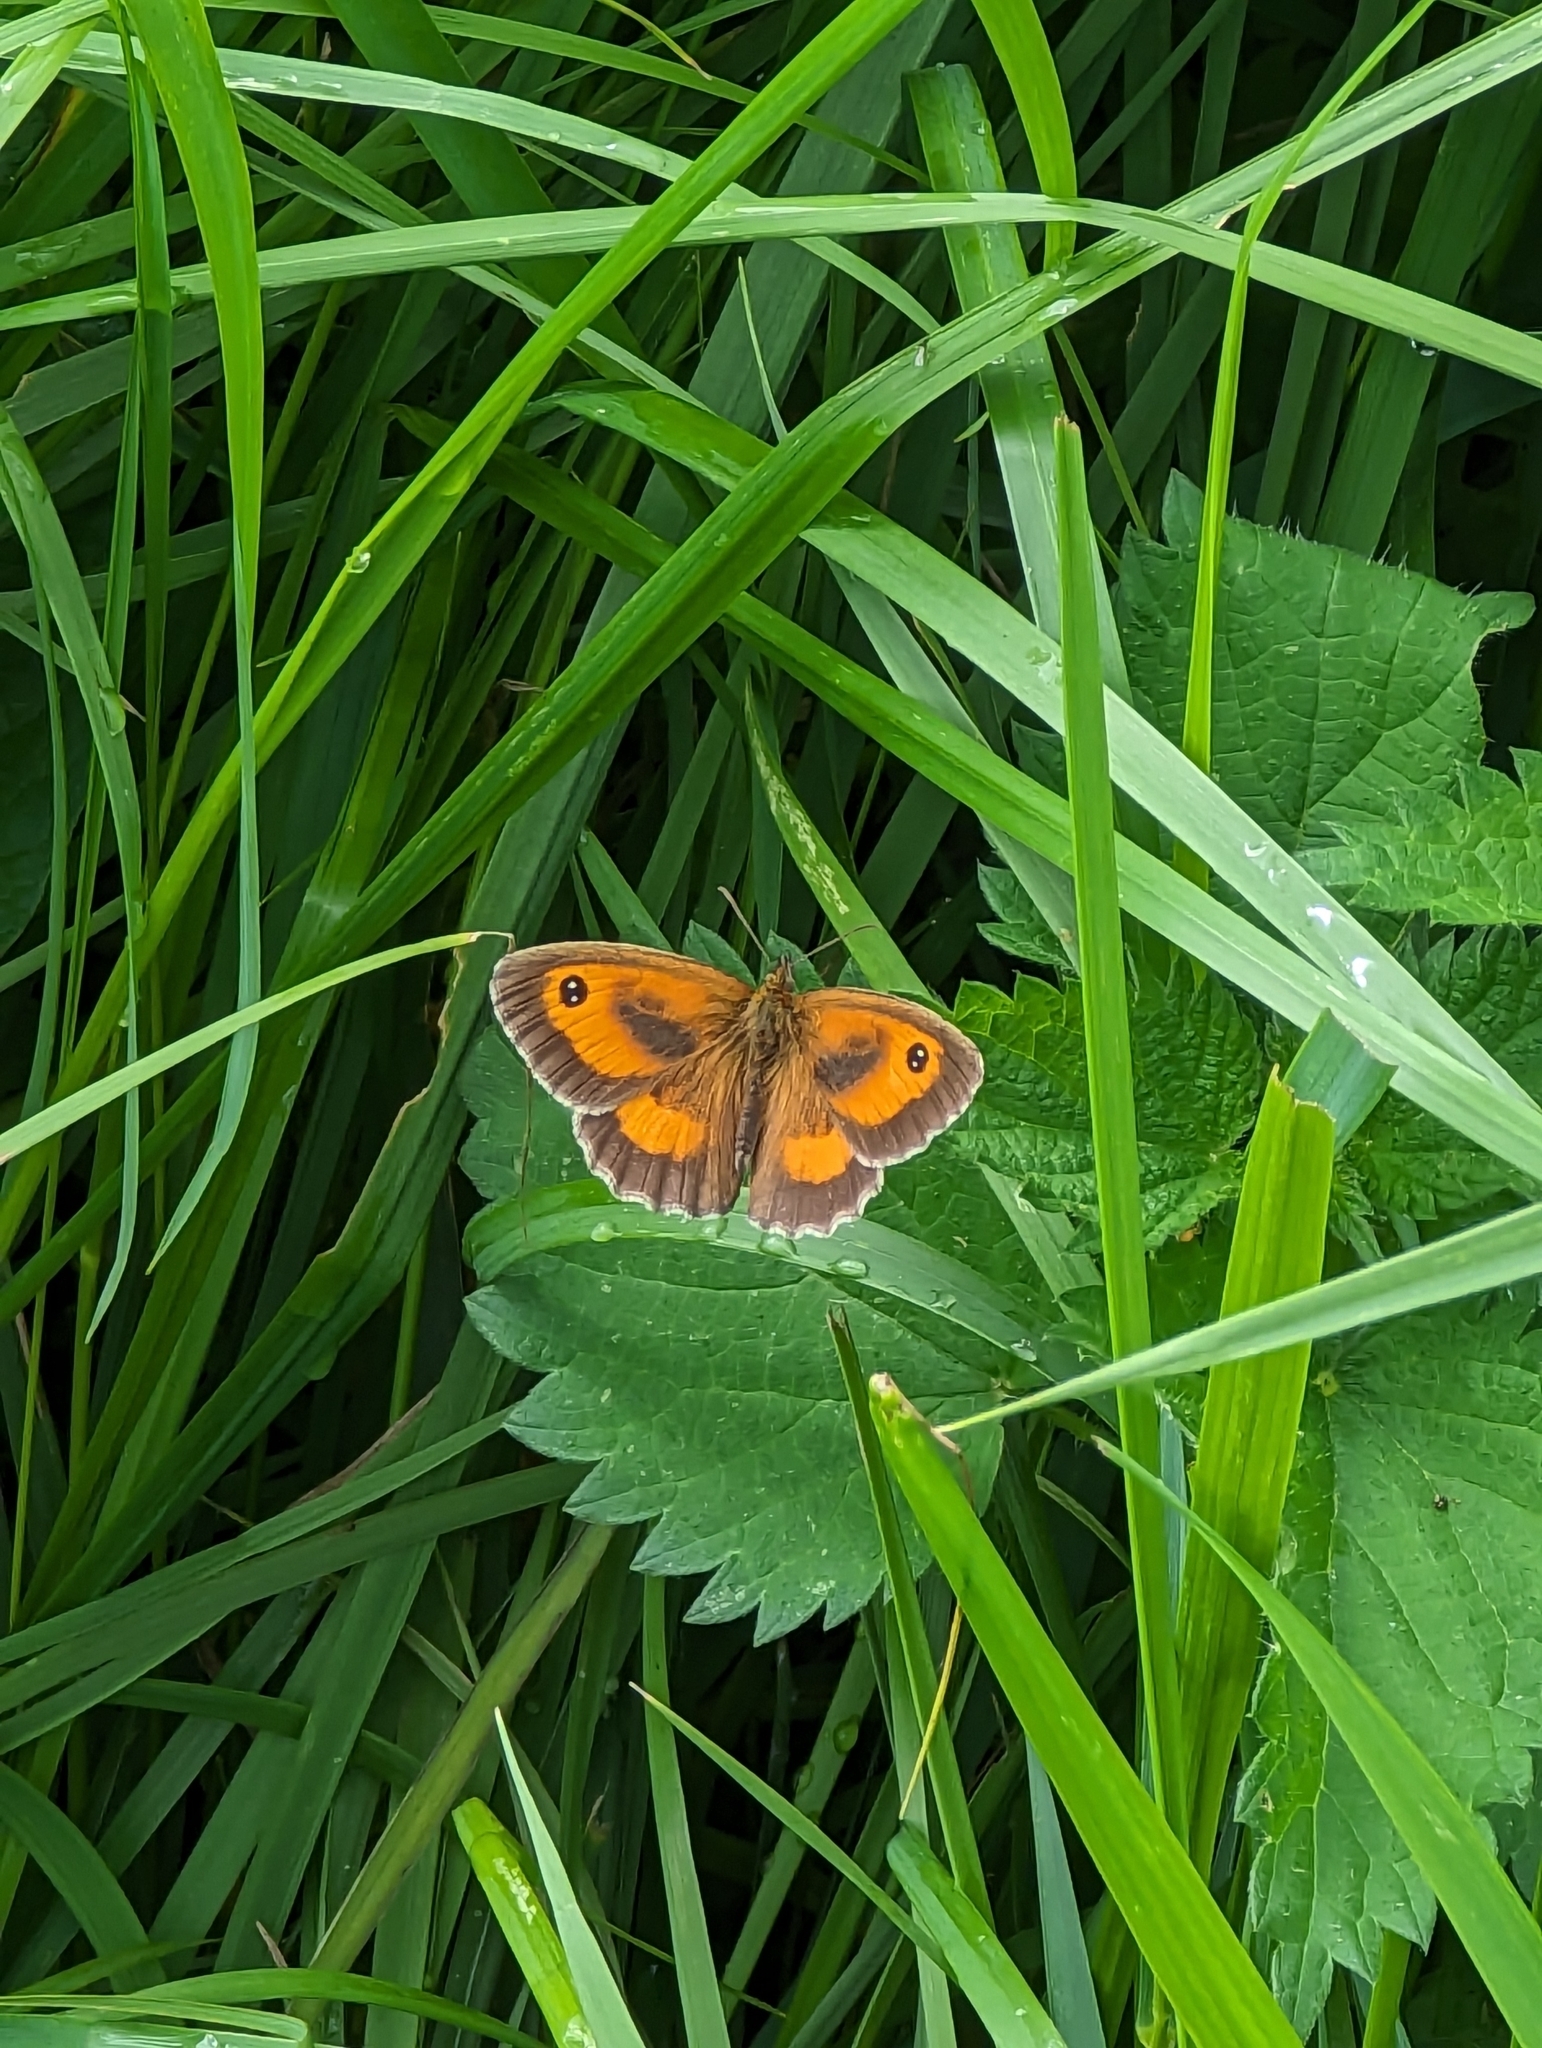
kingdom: Animalia
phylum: Arthropoda
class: Insecta
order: Lepidoptera
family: Nymphalidae
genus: Pyronia
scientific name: Pyronia tithonus
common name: Gatekeeper
